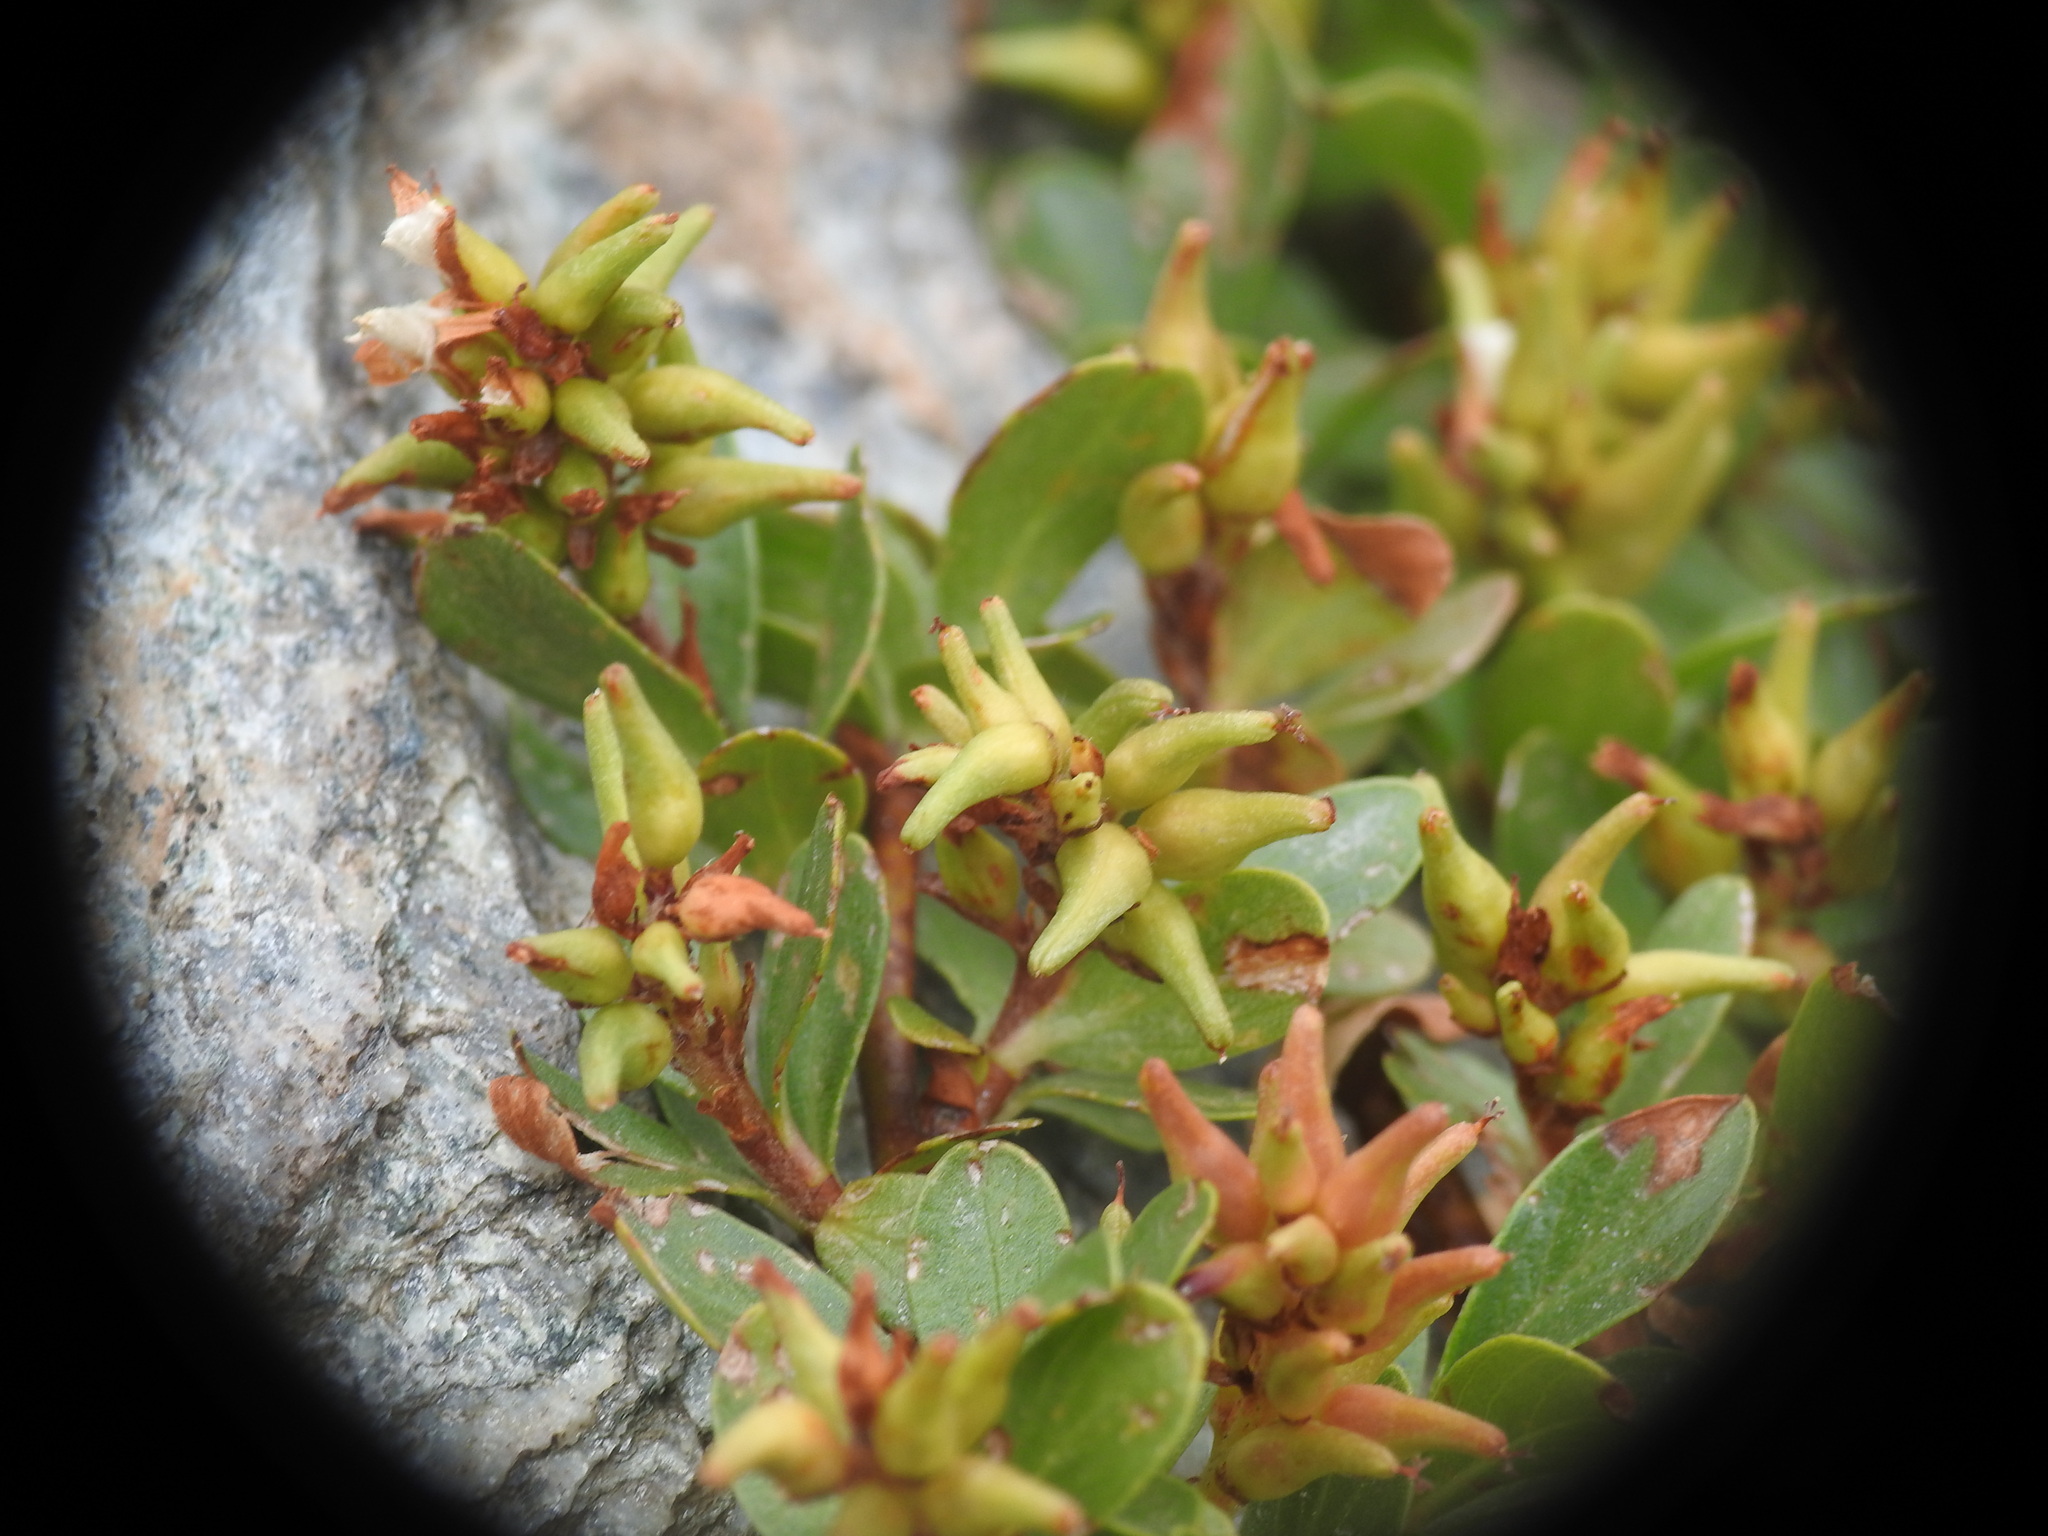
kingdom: Plantae
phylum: Tracheophyta
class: Magnoliopsida
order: Malpighiales
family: Salicaceae
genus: Salix
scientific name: Salix retusa
